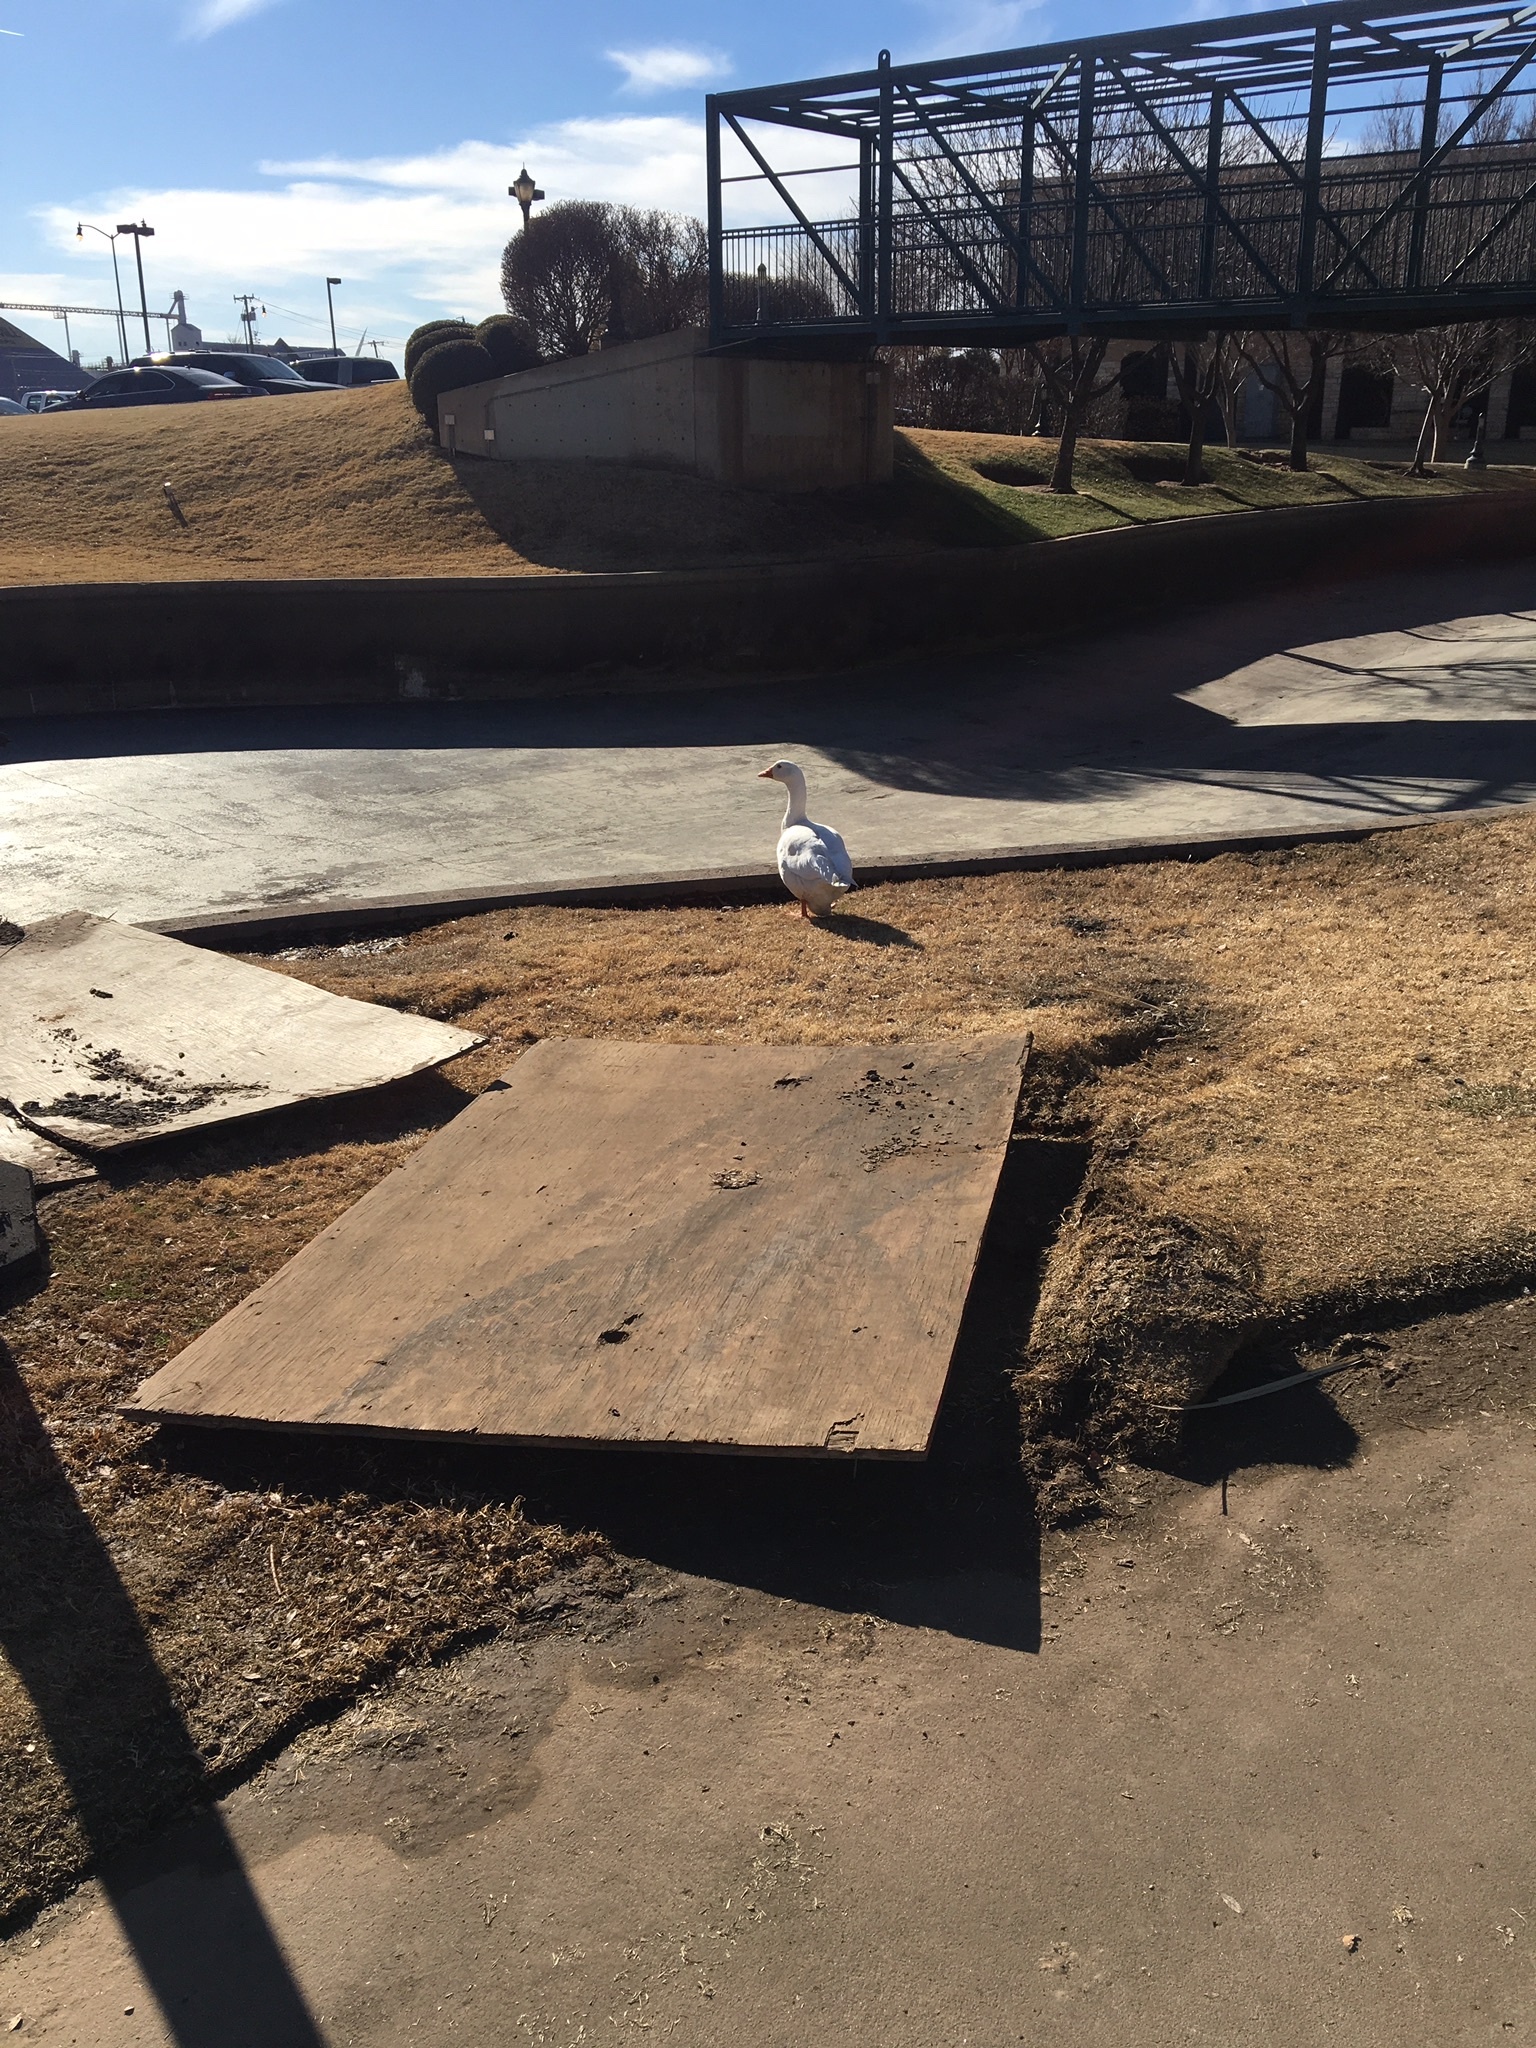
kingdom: Animalia
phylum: Chordata
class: Aves
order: Anseriformes
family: Anatidae
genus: Anser
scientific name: Anser anser
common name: Greylag goose
